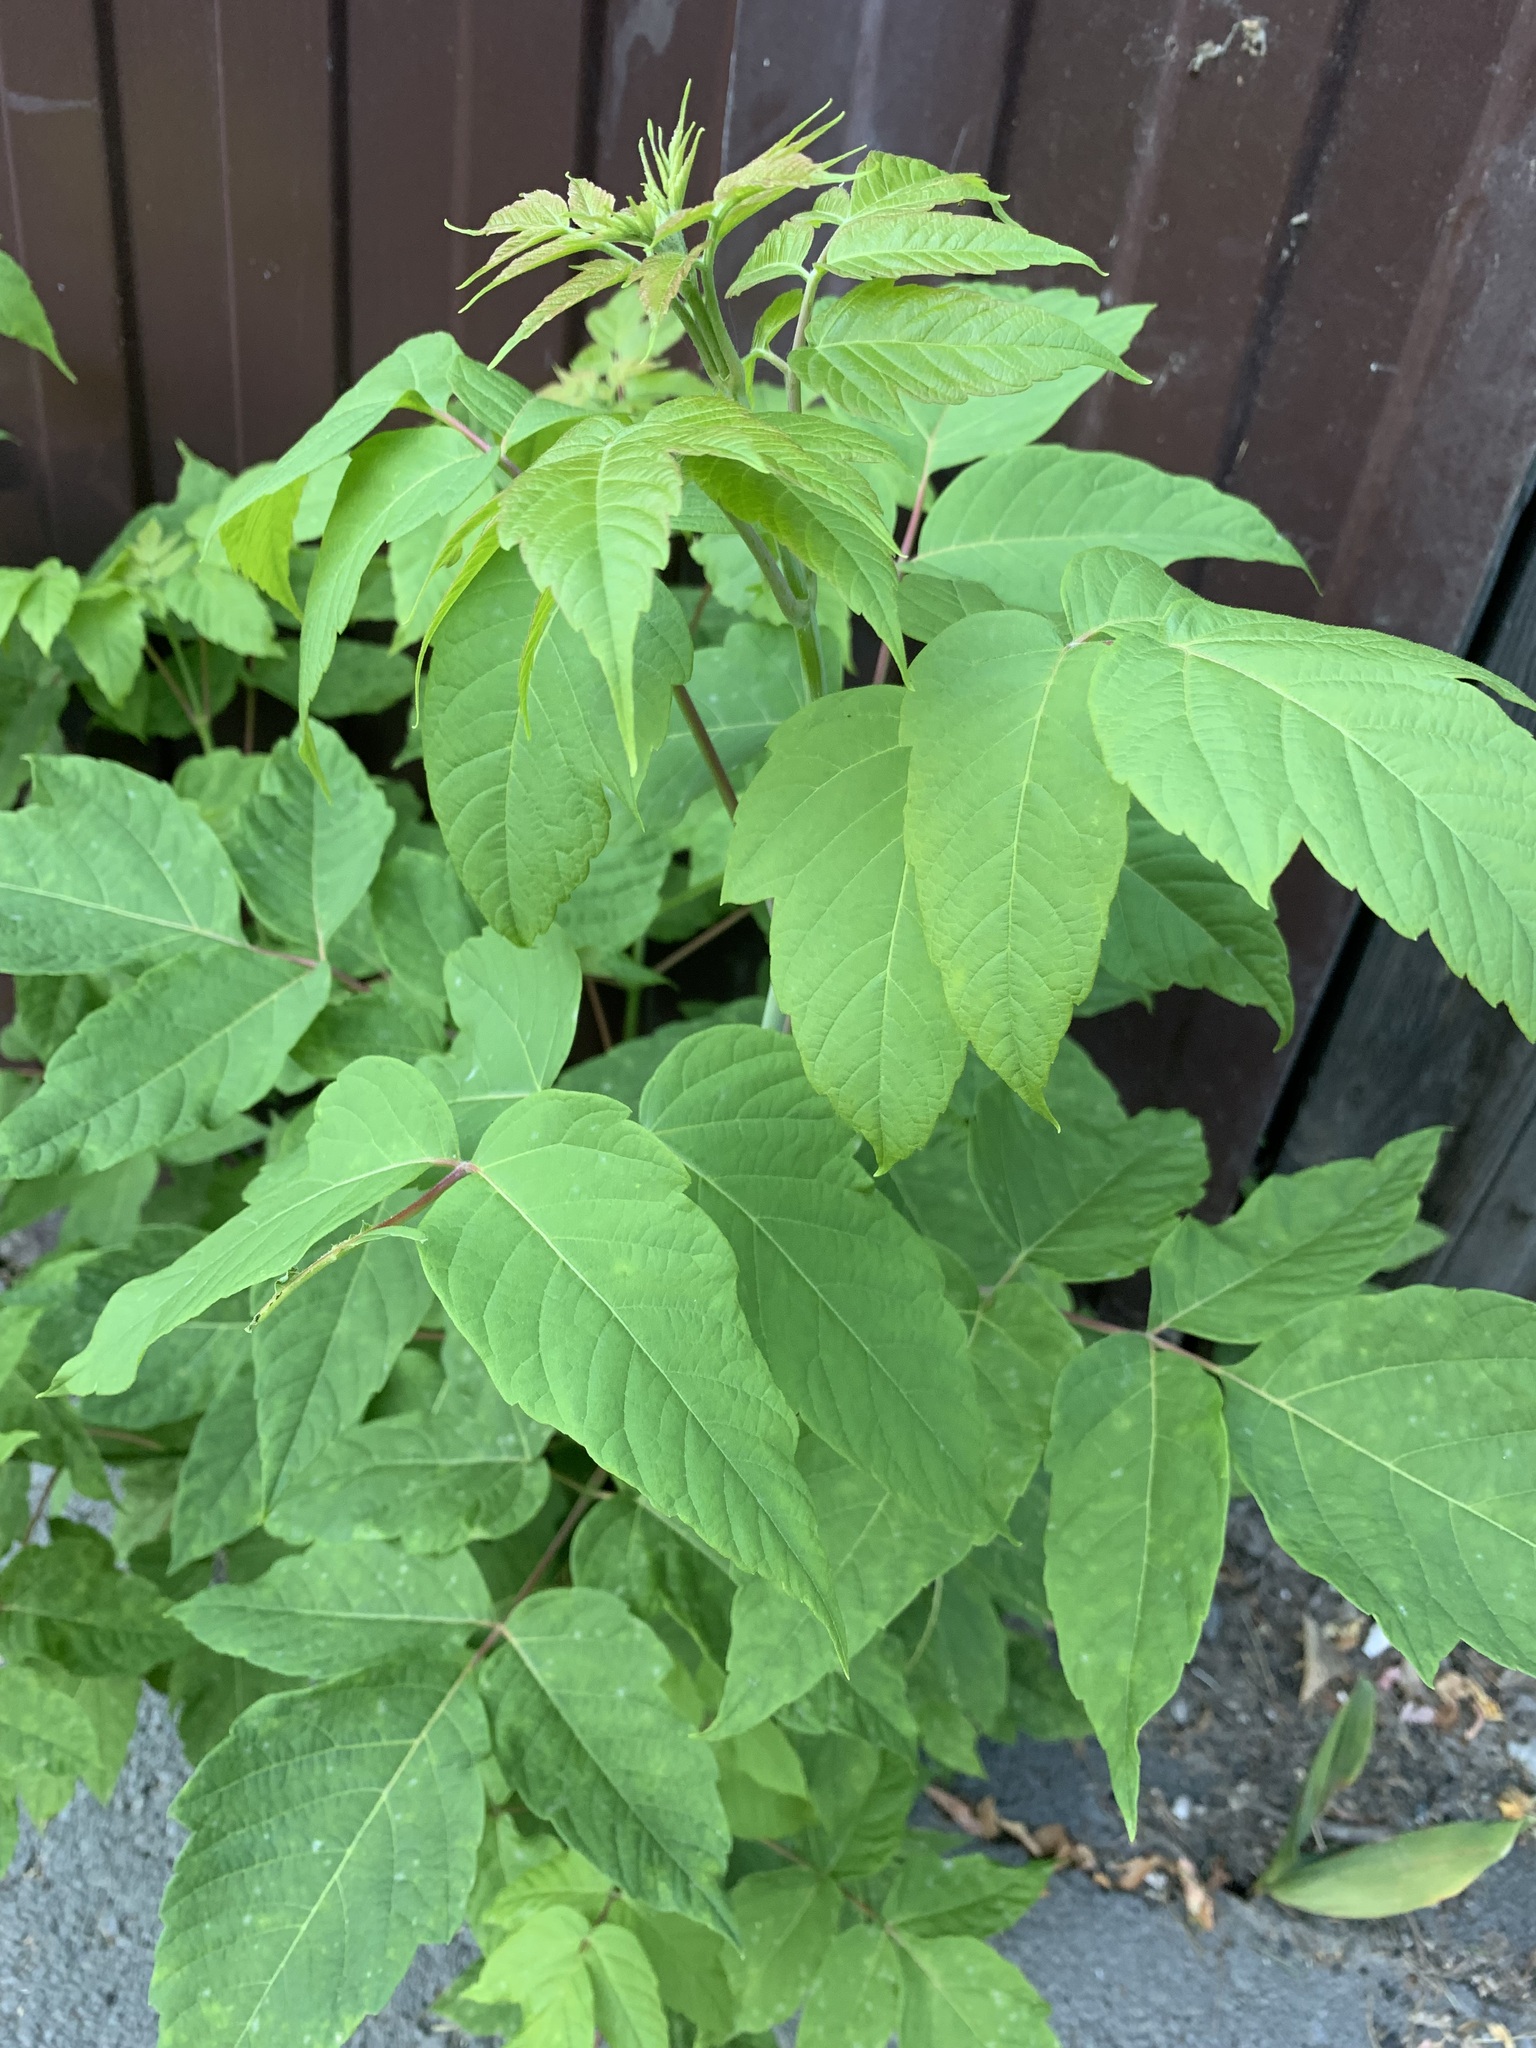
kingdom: Plantae
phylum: Tracheophyta
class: Magnoliopsida
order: Sapindales
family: Sapindaceae
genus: Acer
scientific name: Acer negundo
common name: Ashleaf maple
